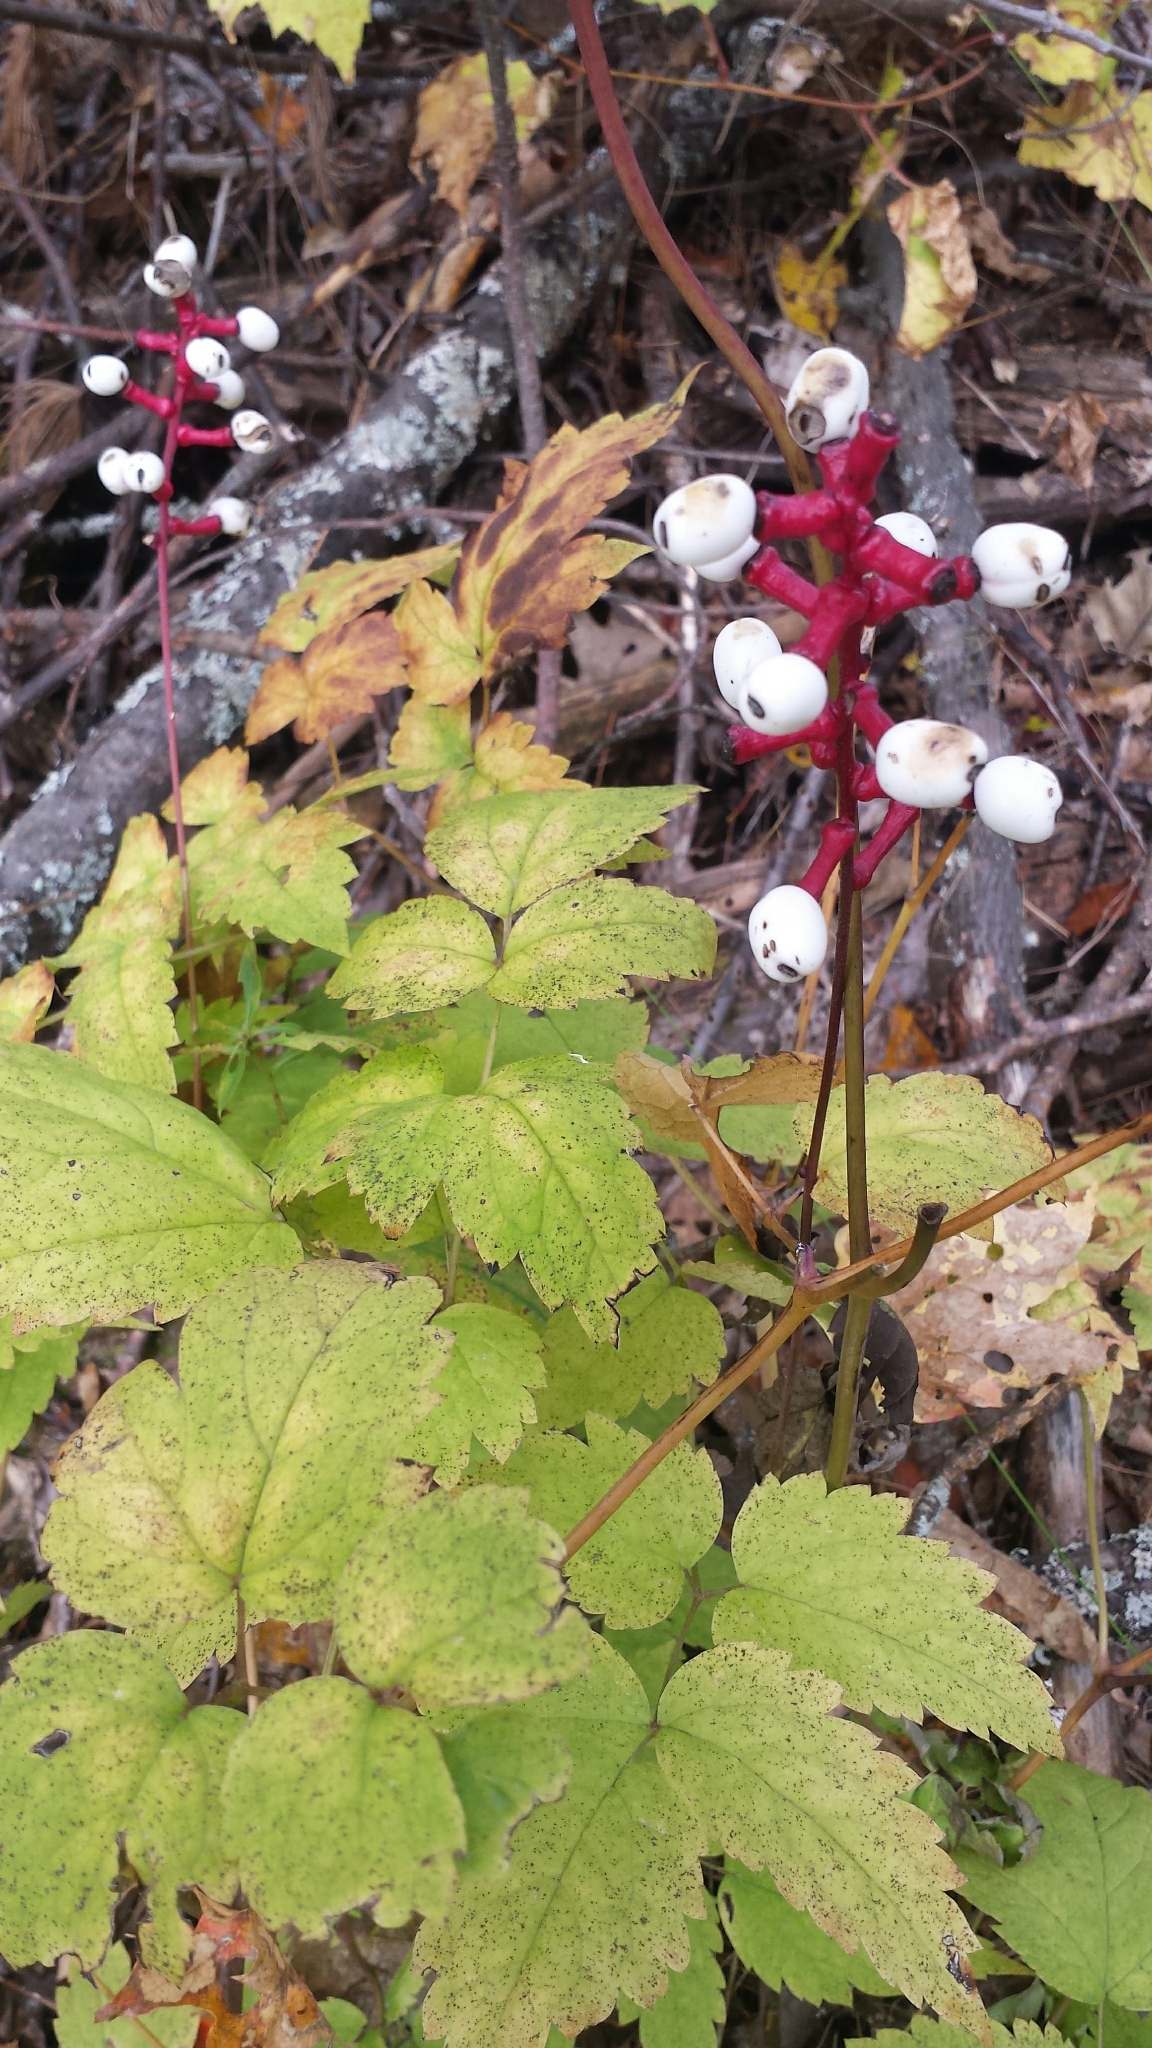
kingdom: Plantae
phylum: Tracheophyta
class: Magnoliopsida
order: Ranunculales
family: Ranunculaceae
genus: Actaea
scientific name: Actaea pachypoda
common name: Doll's-eyes
